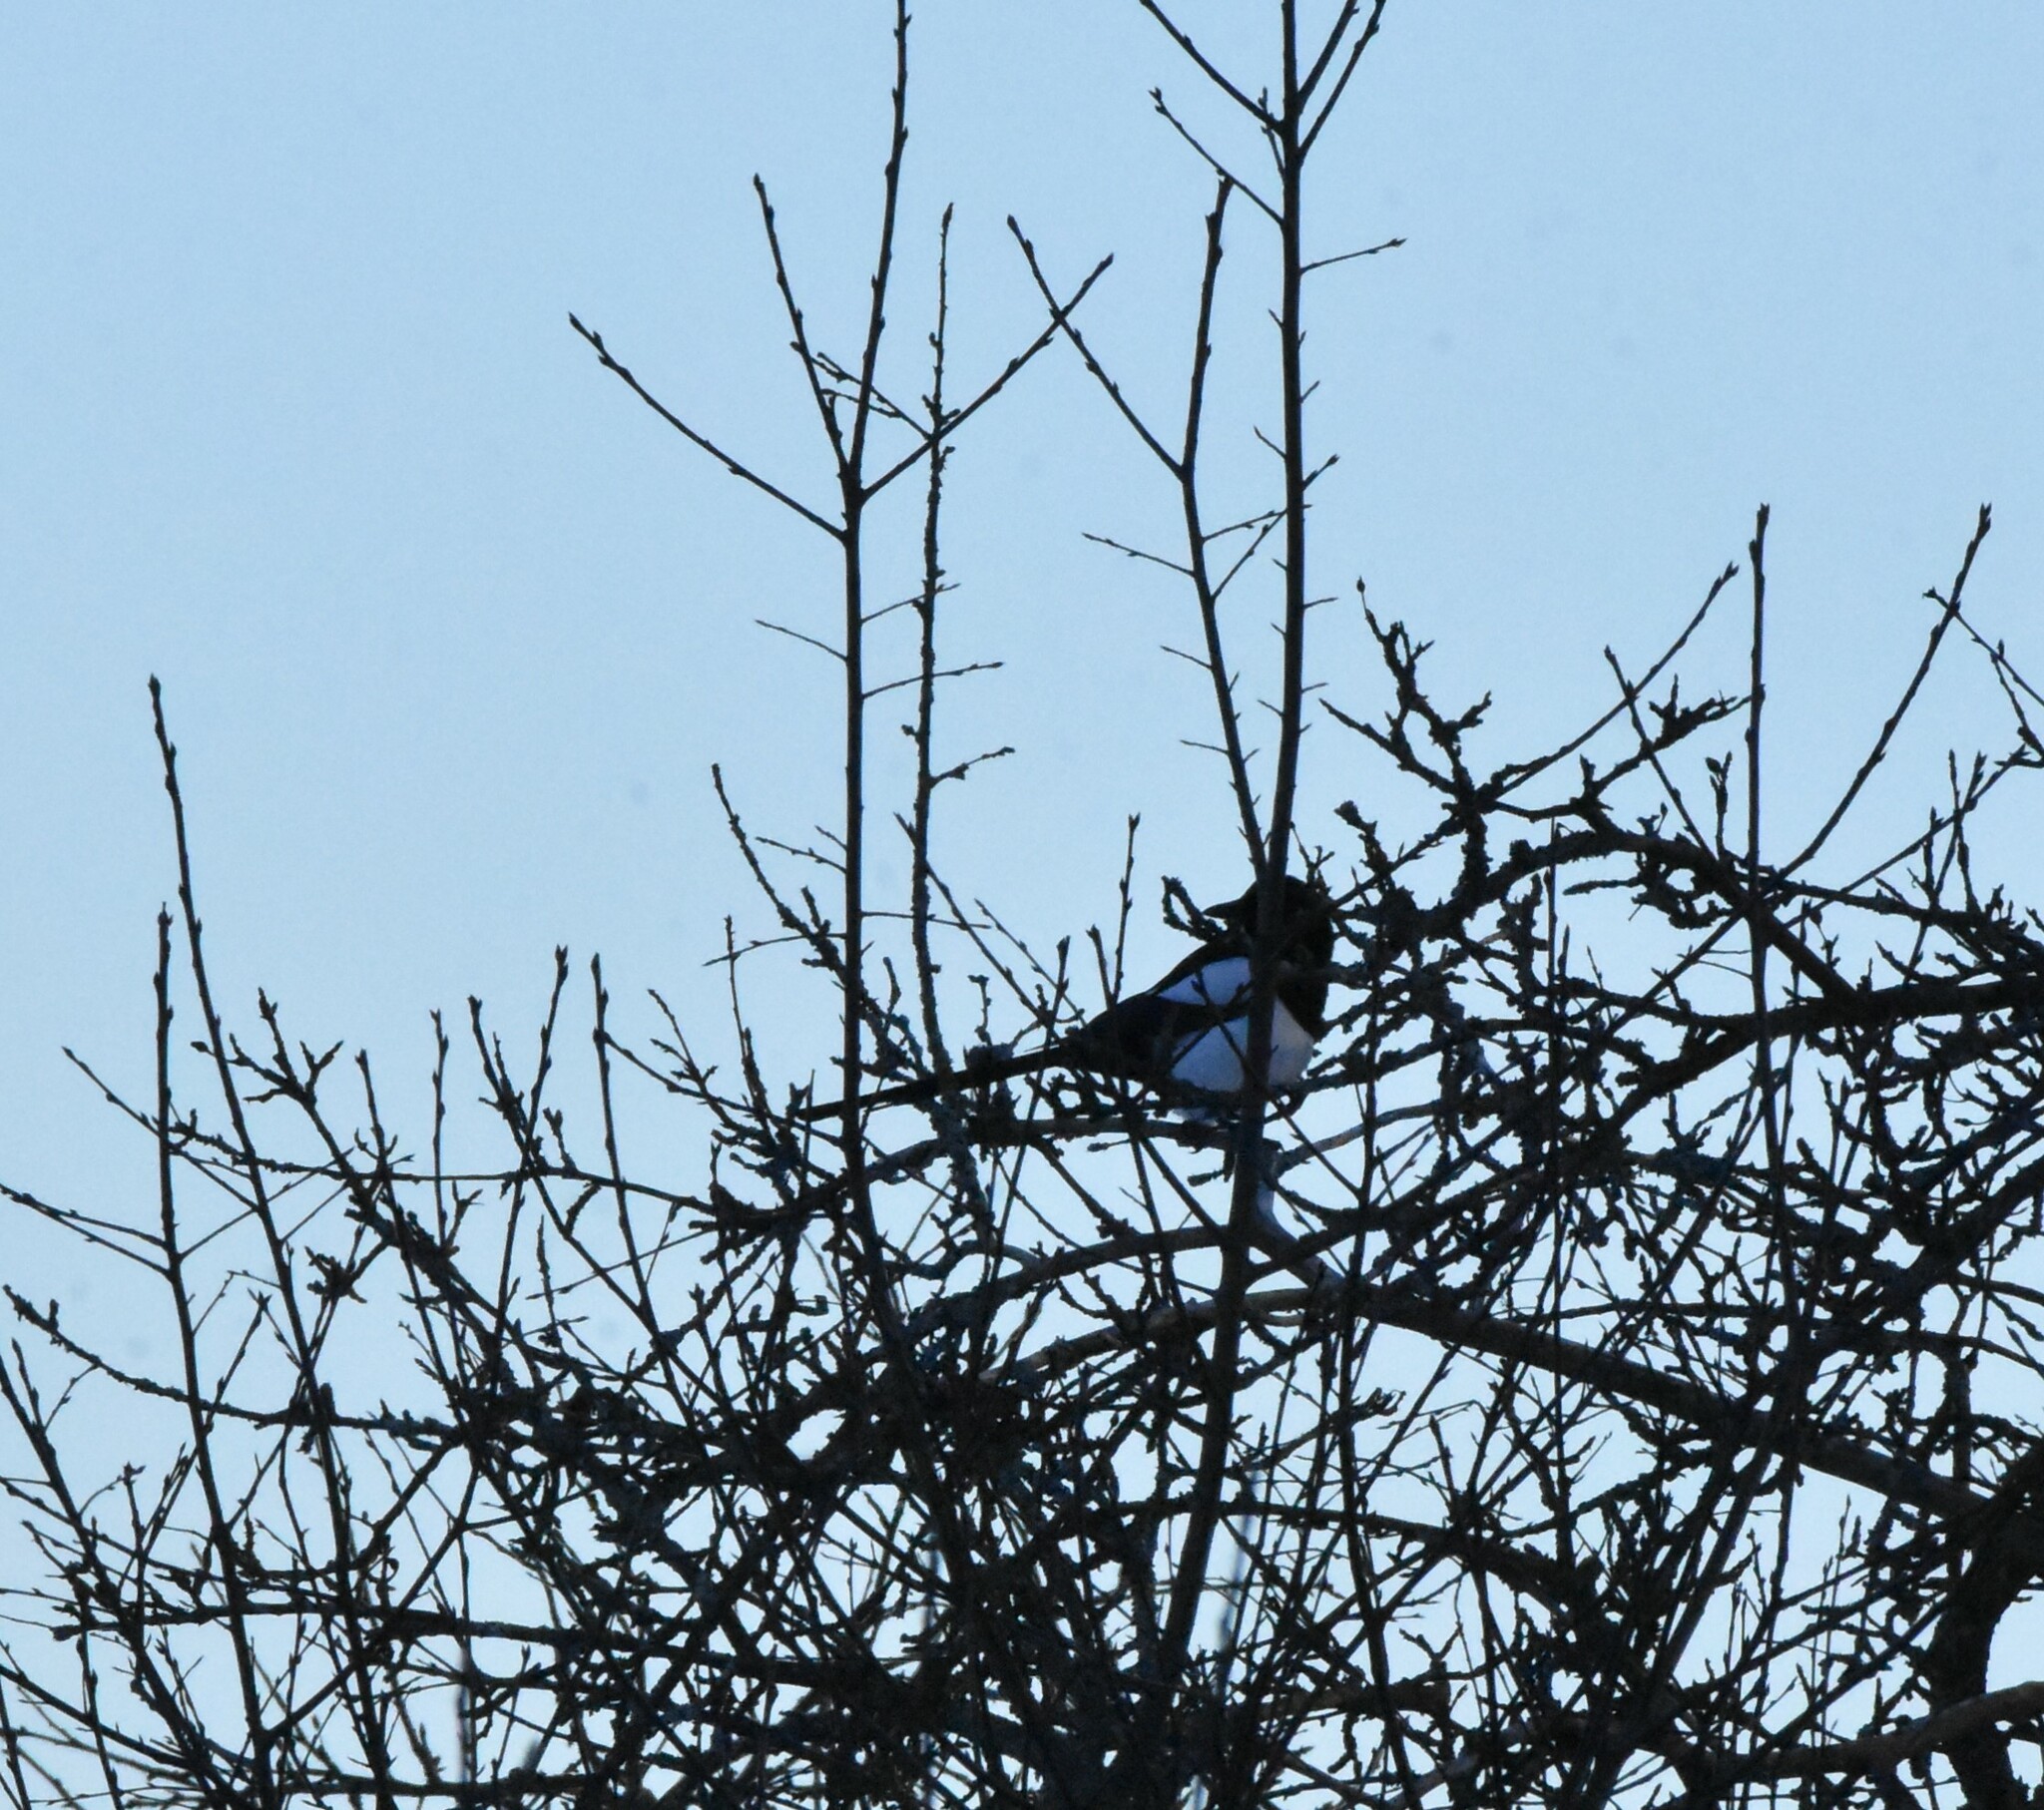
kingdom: Animalia
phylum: Chordata
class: Aves
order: Passeriformes
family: Corvidae
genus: Pica
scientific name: Pica pica
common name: Eurasian magpie
